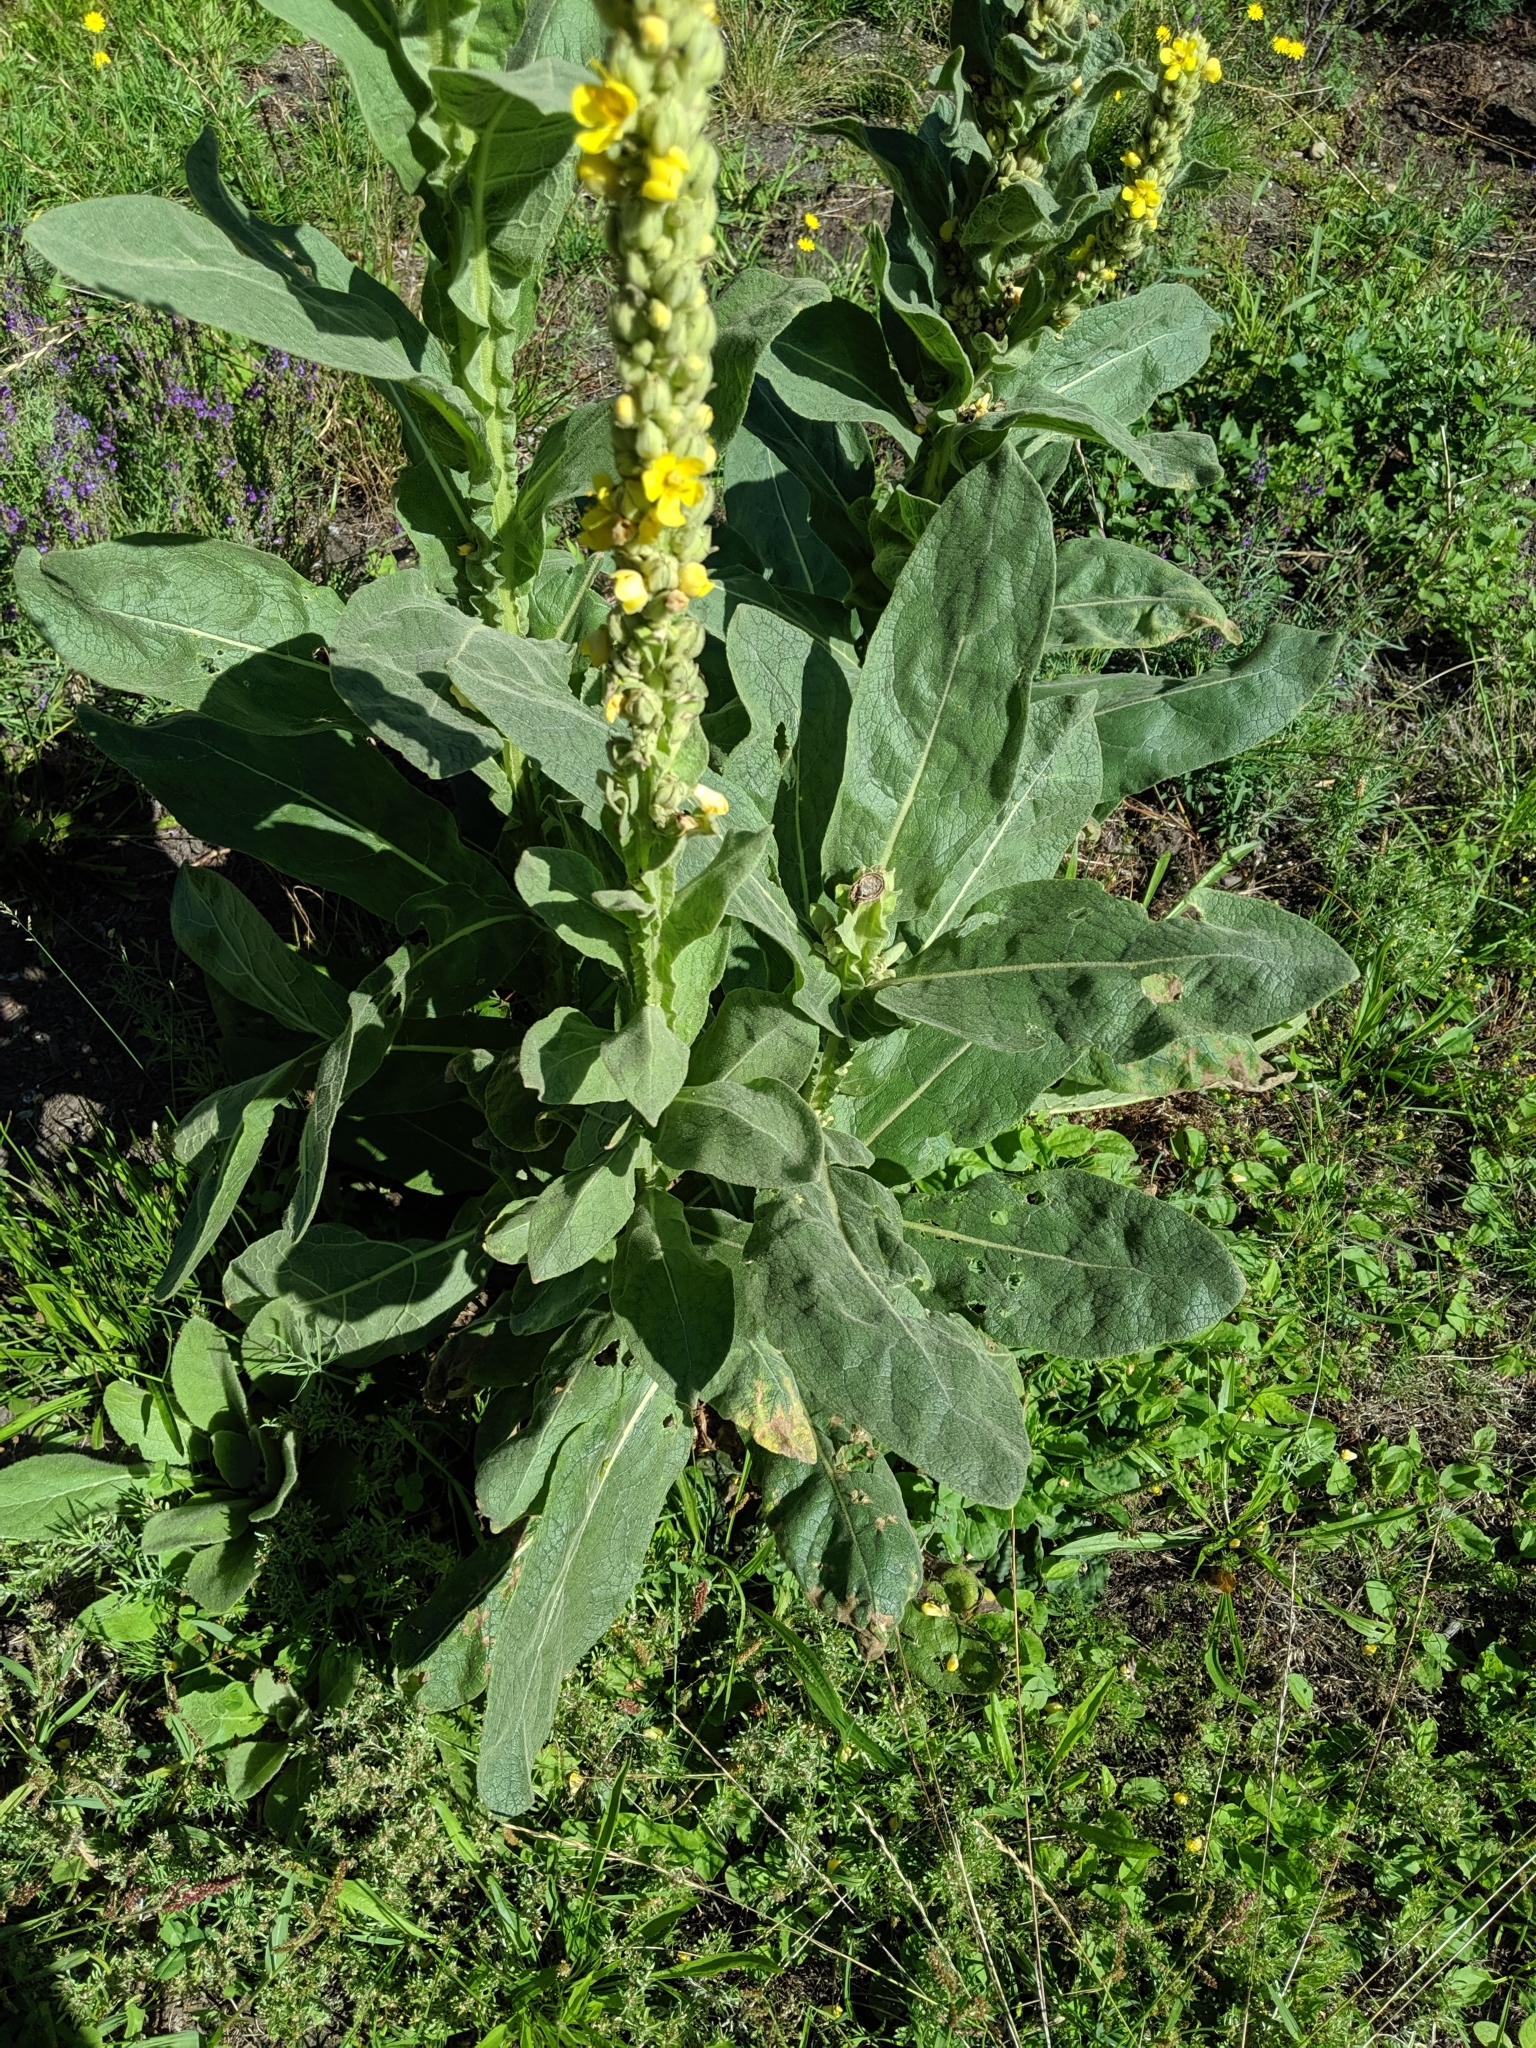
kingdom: Plantae
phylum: Tracheophyta
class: Magnoliopsida
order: Lamiales
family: Scrophulariaceae
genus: Verbascum
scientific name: Verbascum thapsus
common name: Common mullein
